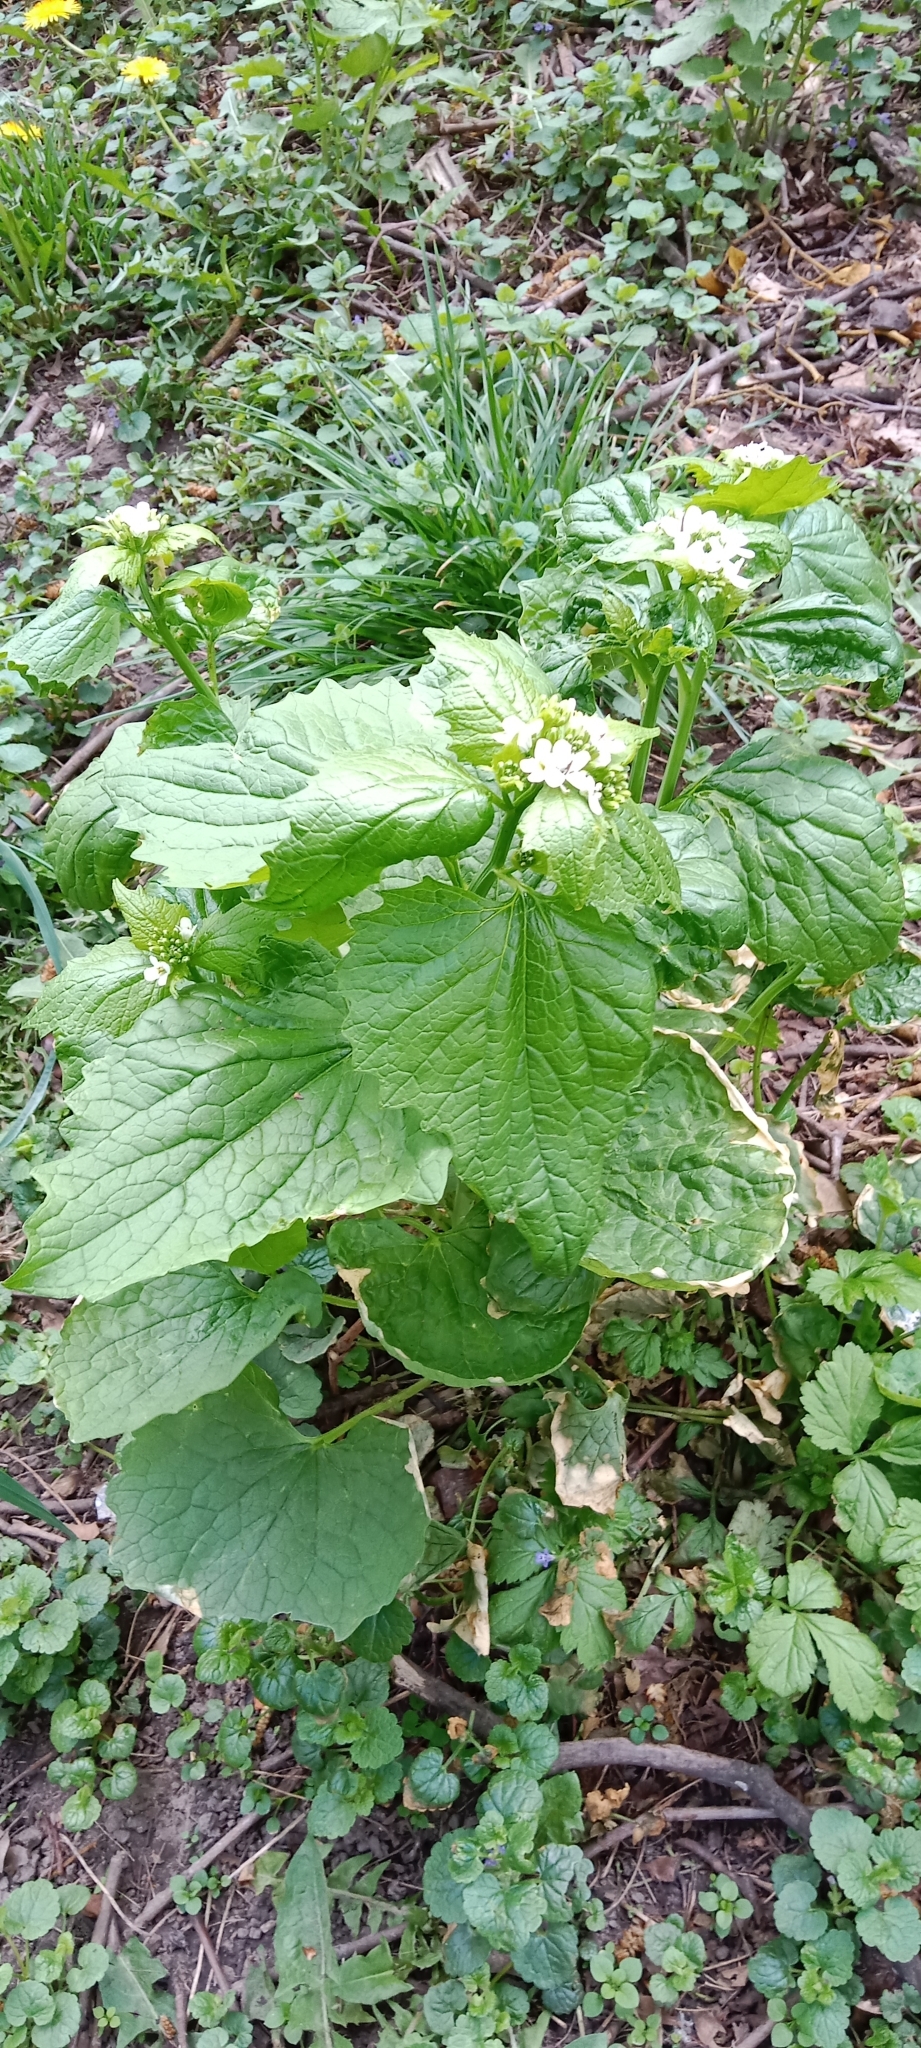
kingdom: Plantae
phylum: Tracheophyta
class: Magnoliopsida
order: Brassicales
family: Brassicaceae
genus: Alliaria
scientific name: Alliaria petiolata
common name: Garlic mustard
